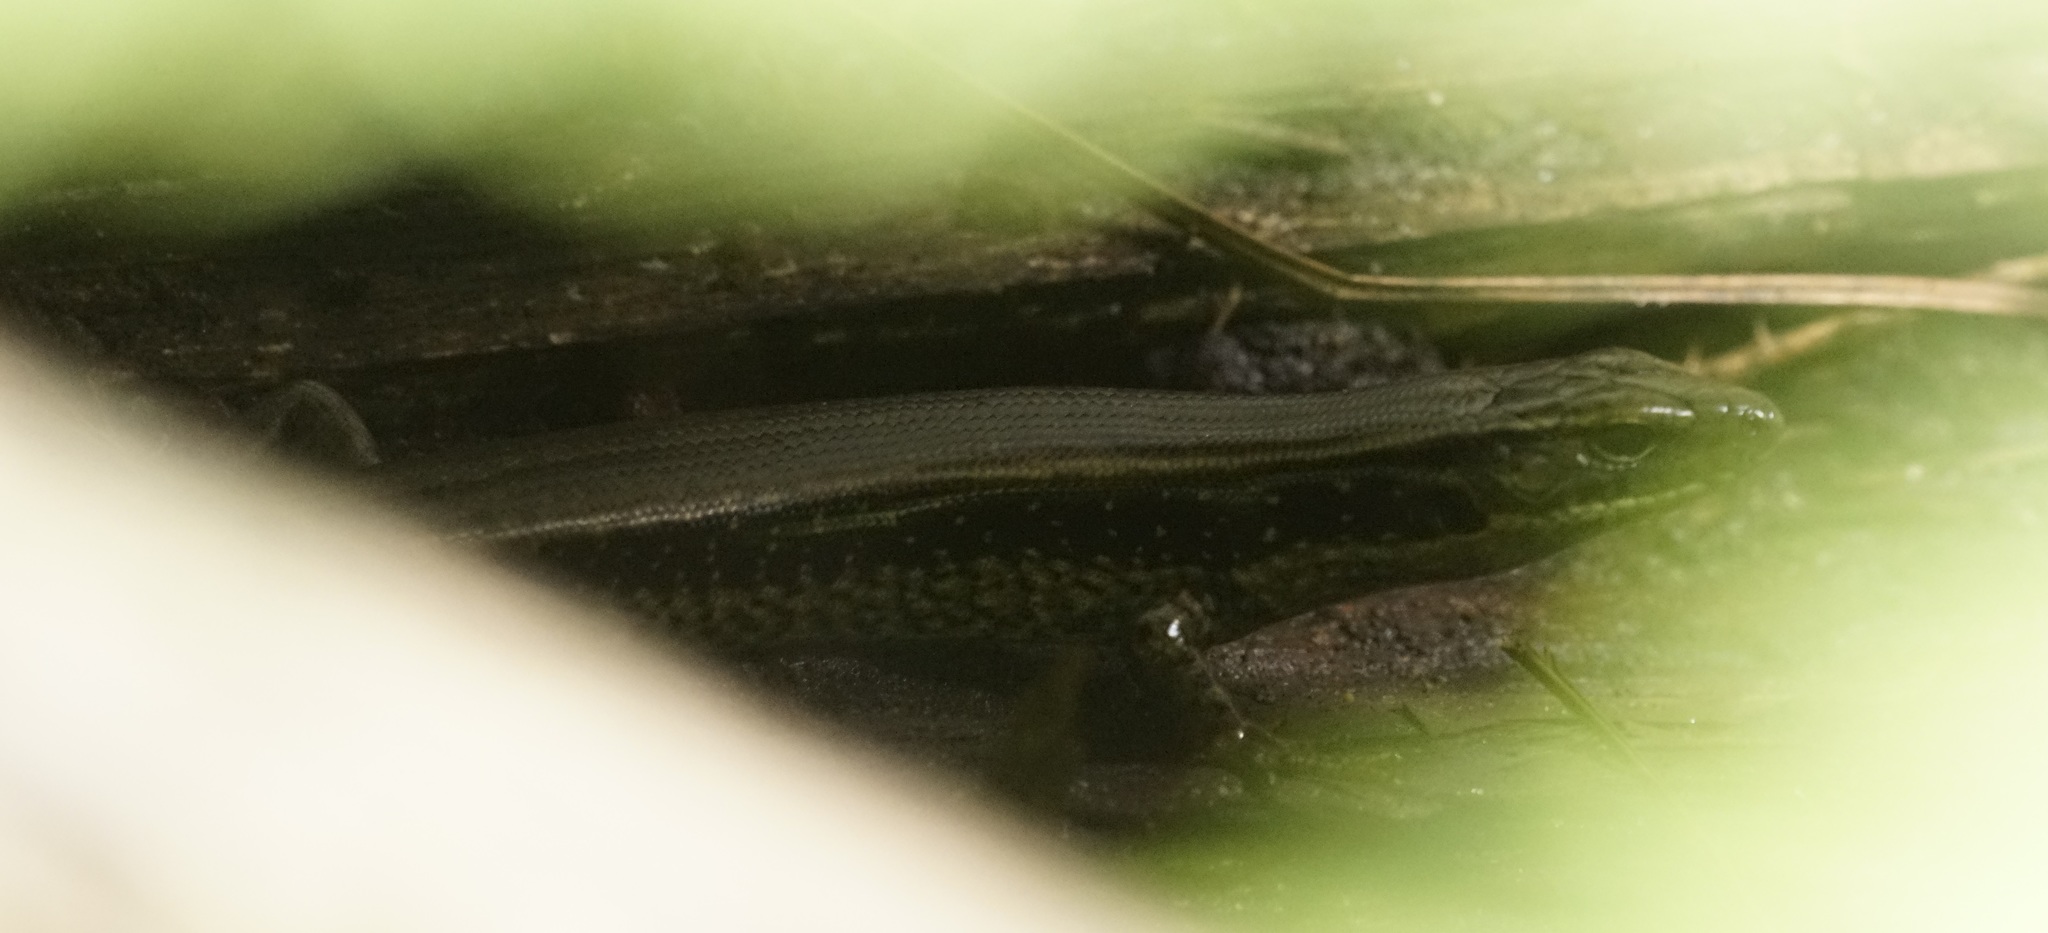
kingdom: Animalia
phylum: Chordata
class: Squamata
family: Scincidae
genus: Eulamprus
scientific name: Eulamprus quoyii
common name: Eastern water skink
